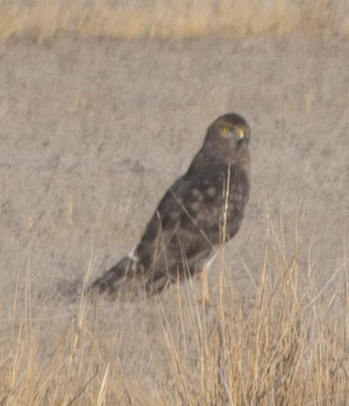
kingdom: Animalia
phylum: Chordata
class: Aves
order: Accipitriformes
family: Accipitridae
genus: Circus
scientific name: Circus cyaneus
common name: Hen harrier
